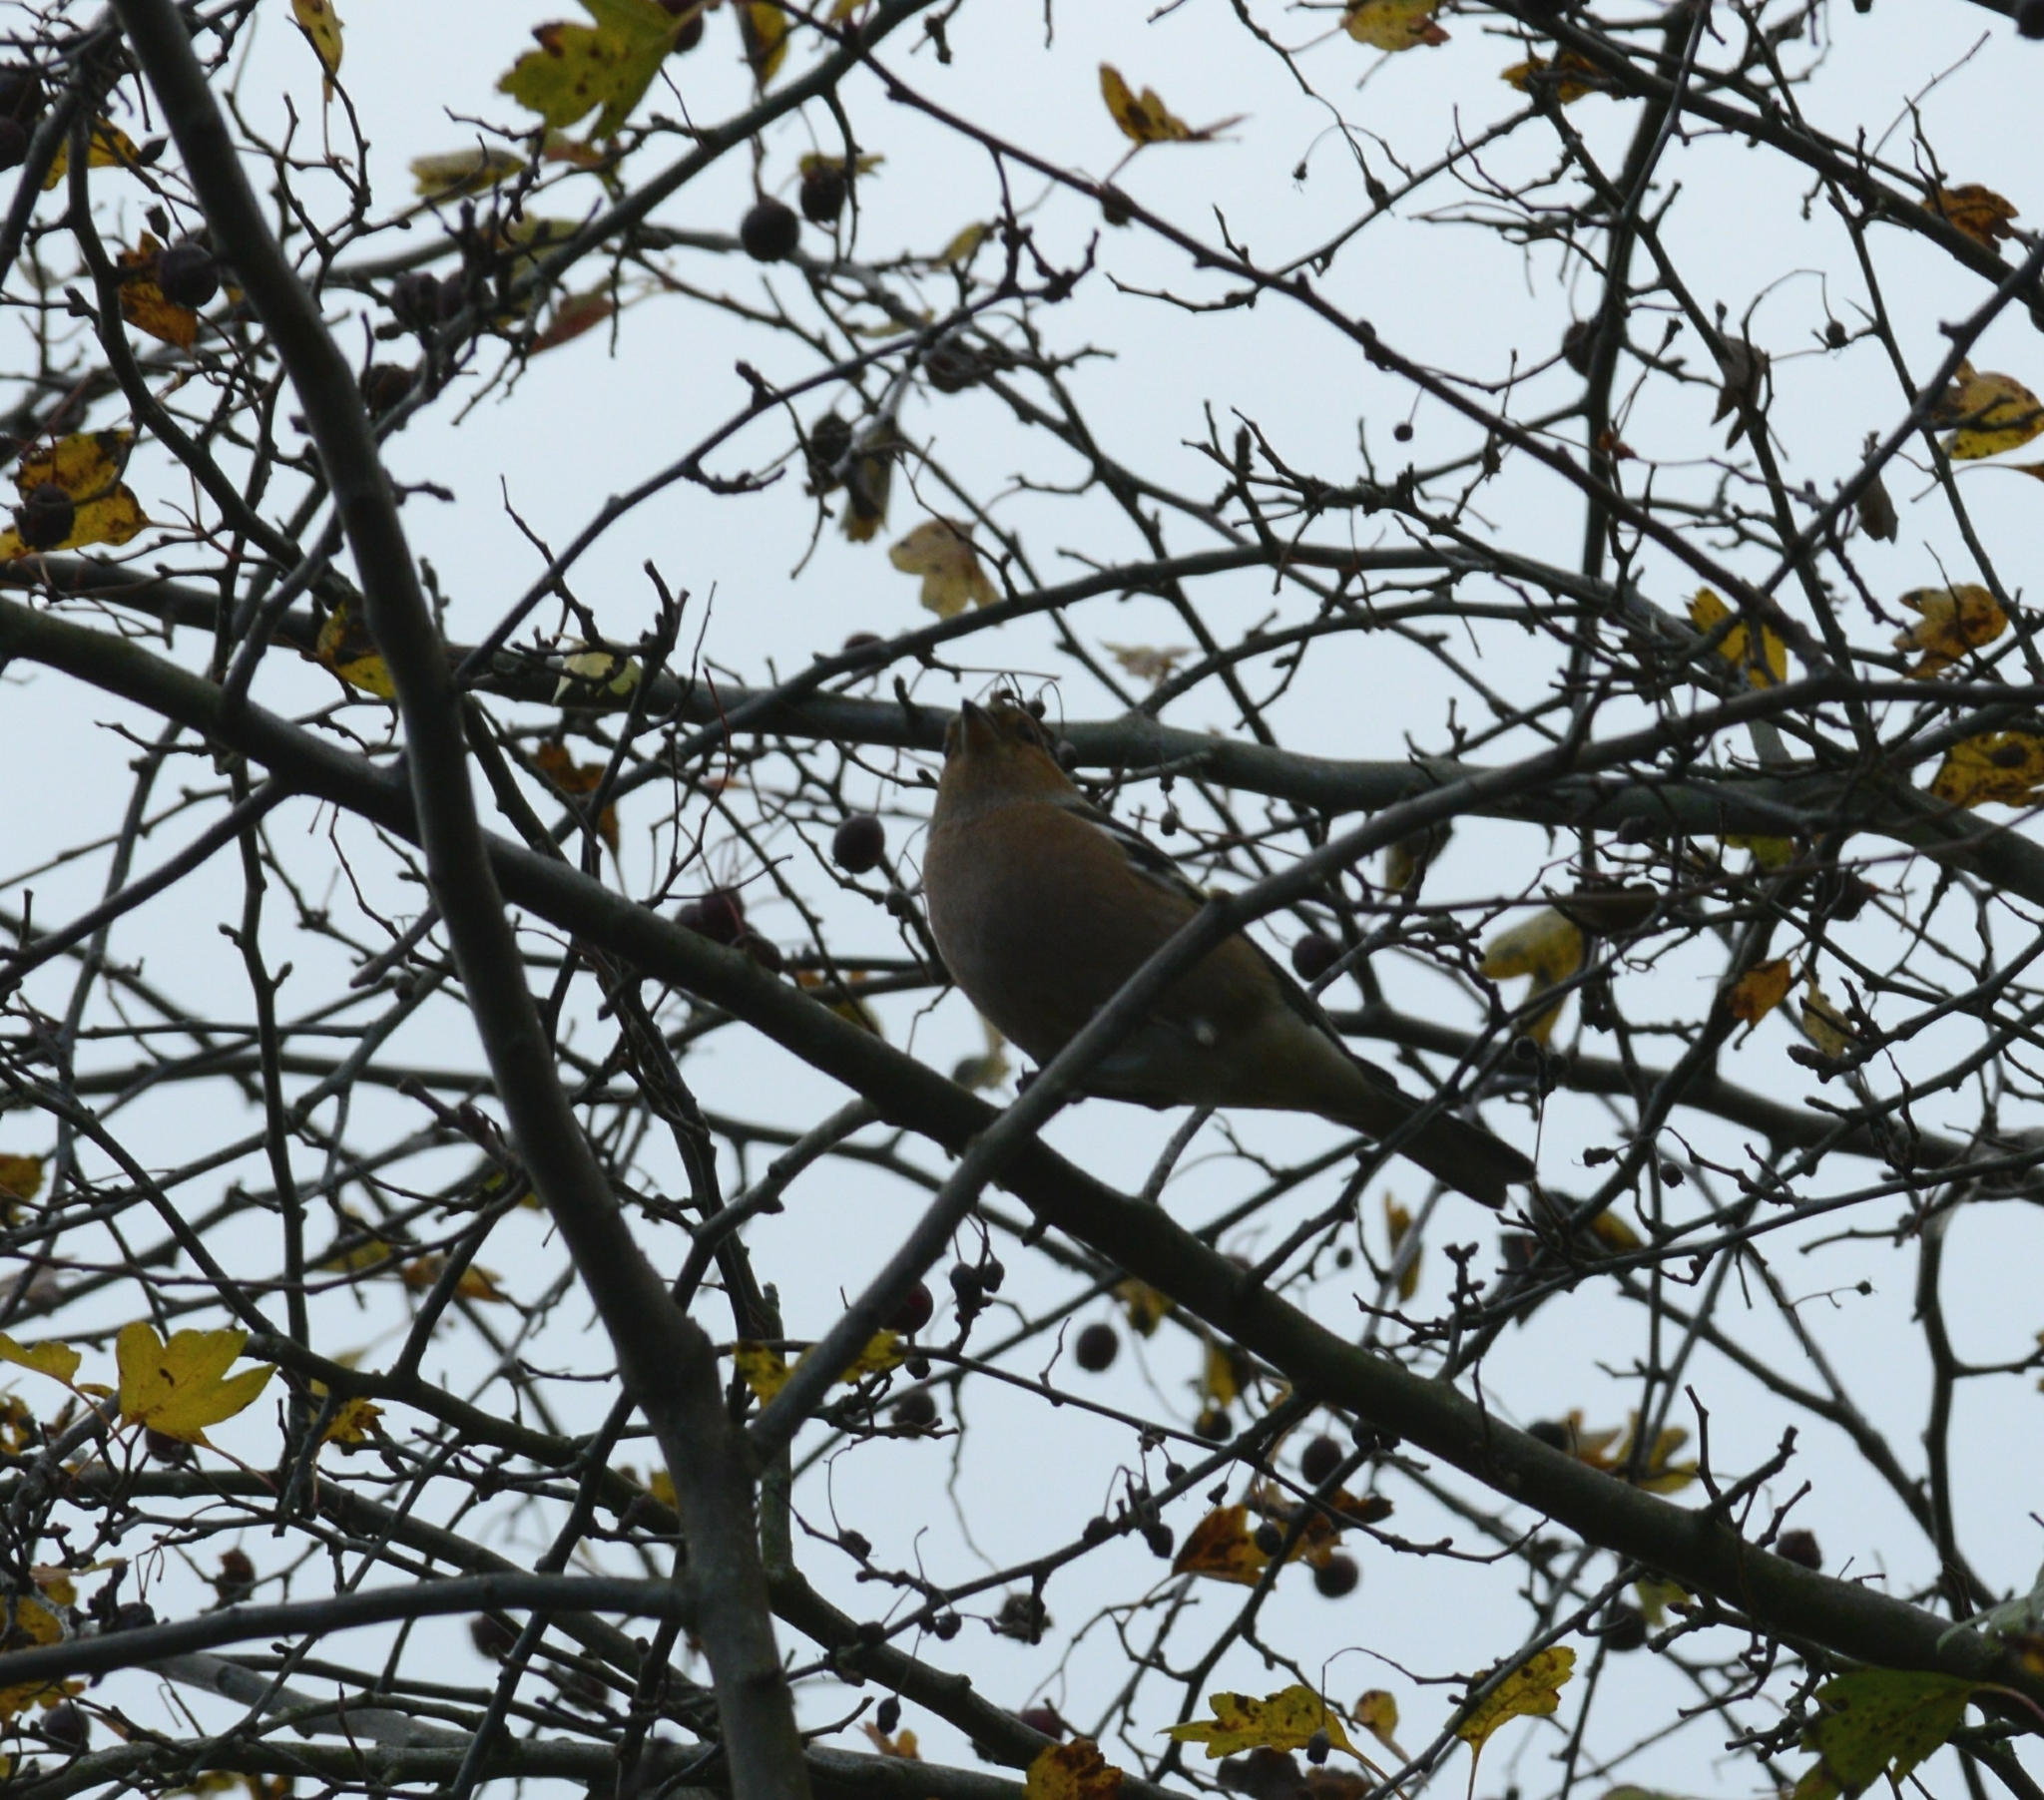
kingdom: Animalia
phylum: Chordata
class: Aves
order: Passeriformes
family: Fringillidae
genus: Fringilla
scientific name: Fringilla coelebs
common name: Common chaffinch
